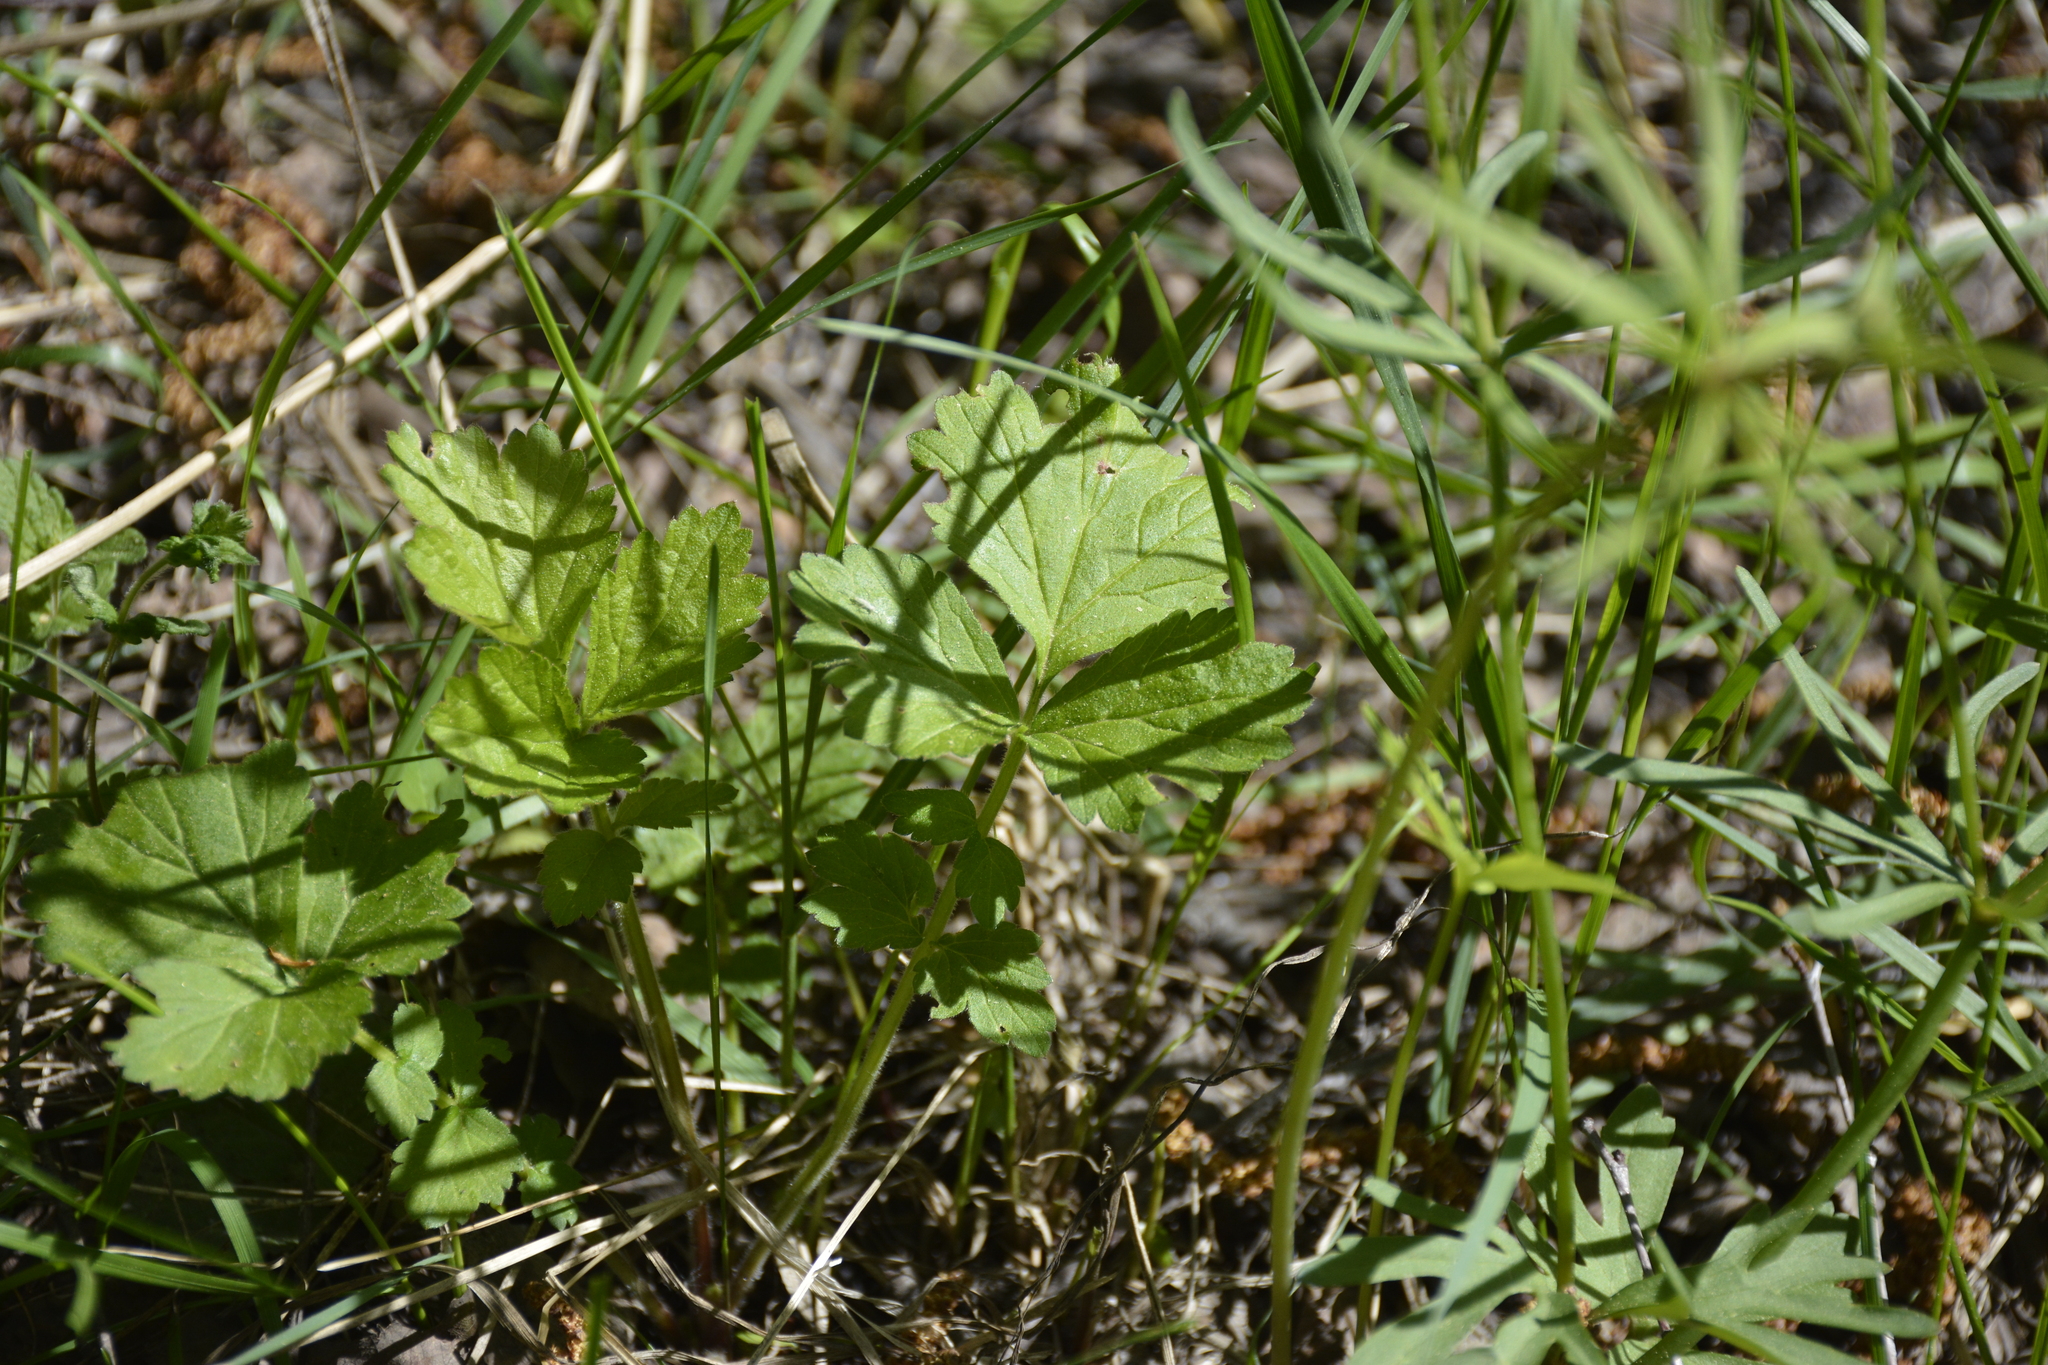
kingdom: Plantae
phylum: Tracheophyta
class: Magnoliopsida
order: Ranunculales
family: Ranunculaceae
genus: Ranunculus
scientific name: Ranunculus auricomus
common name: Goldilocks buttercup
